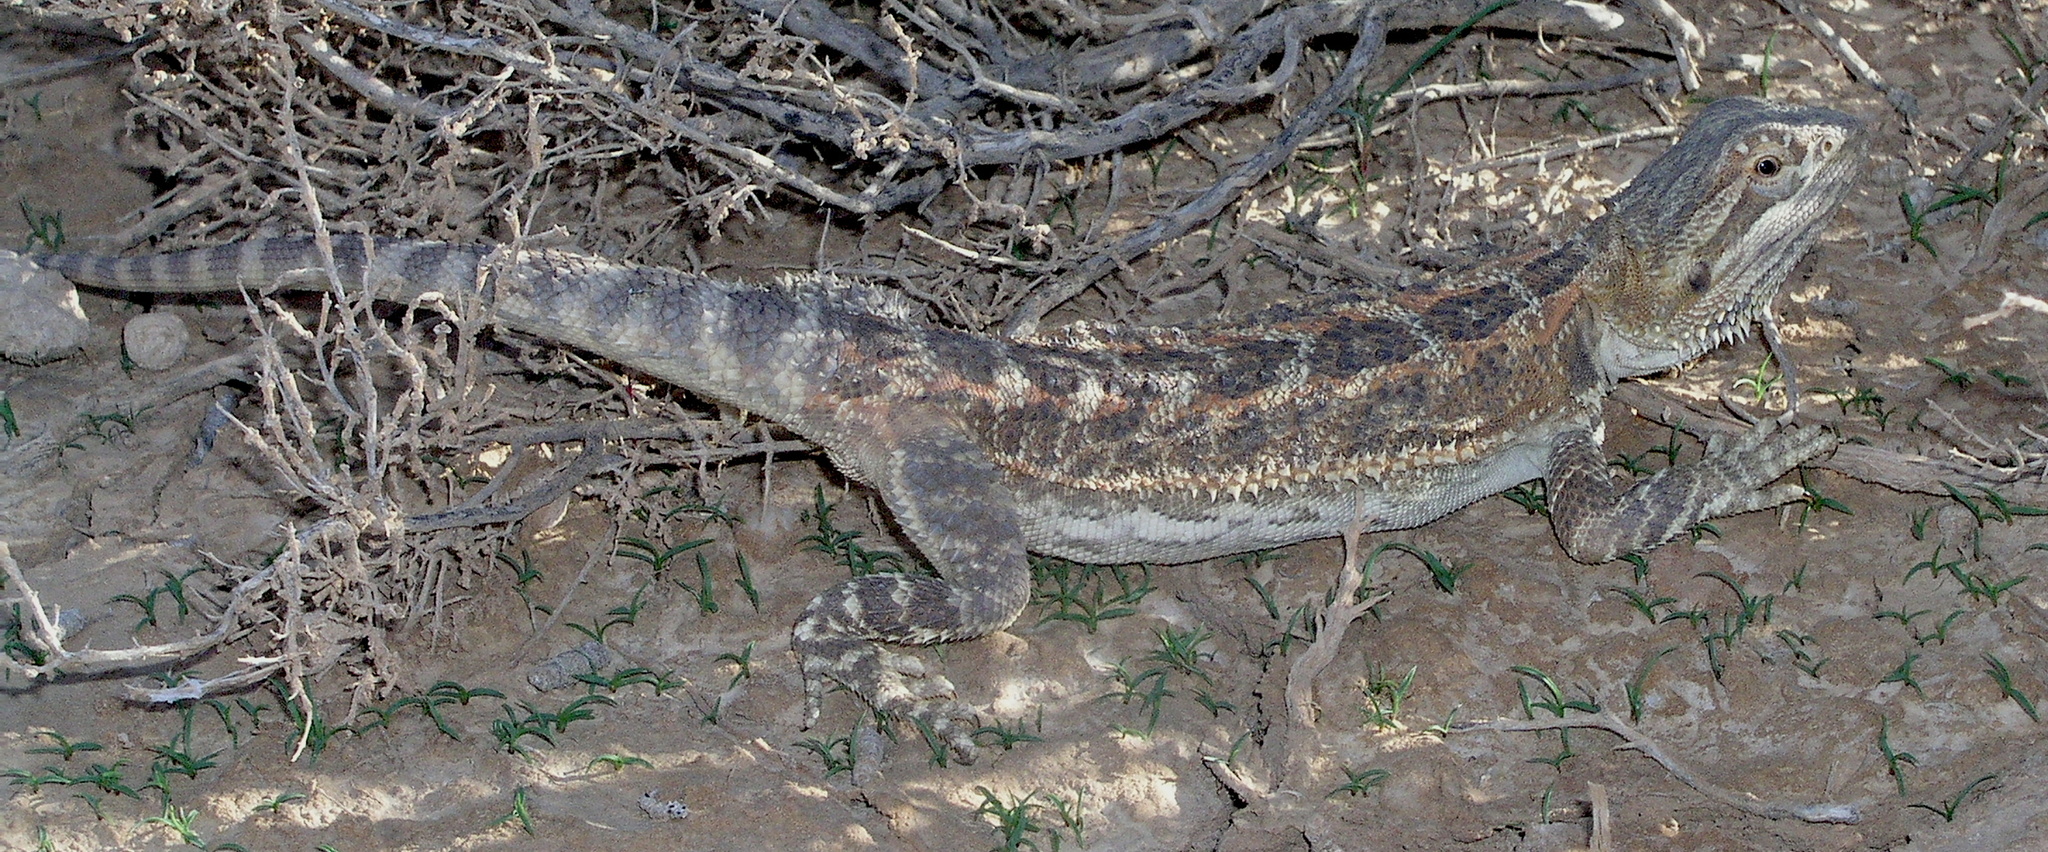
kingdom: Animalia
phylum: Chordata
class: Squamata
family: Agamidae
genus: Pogona
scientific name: Pogona vitticeps
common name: Central bearded dragon
